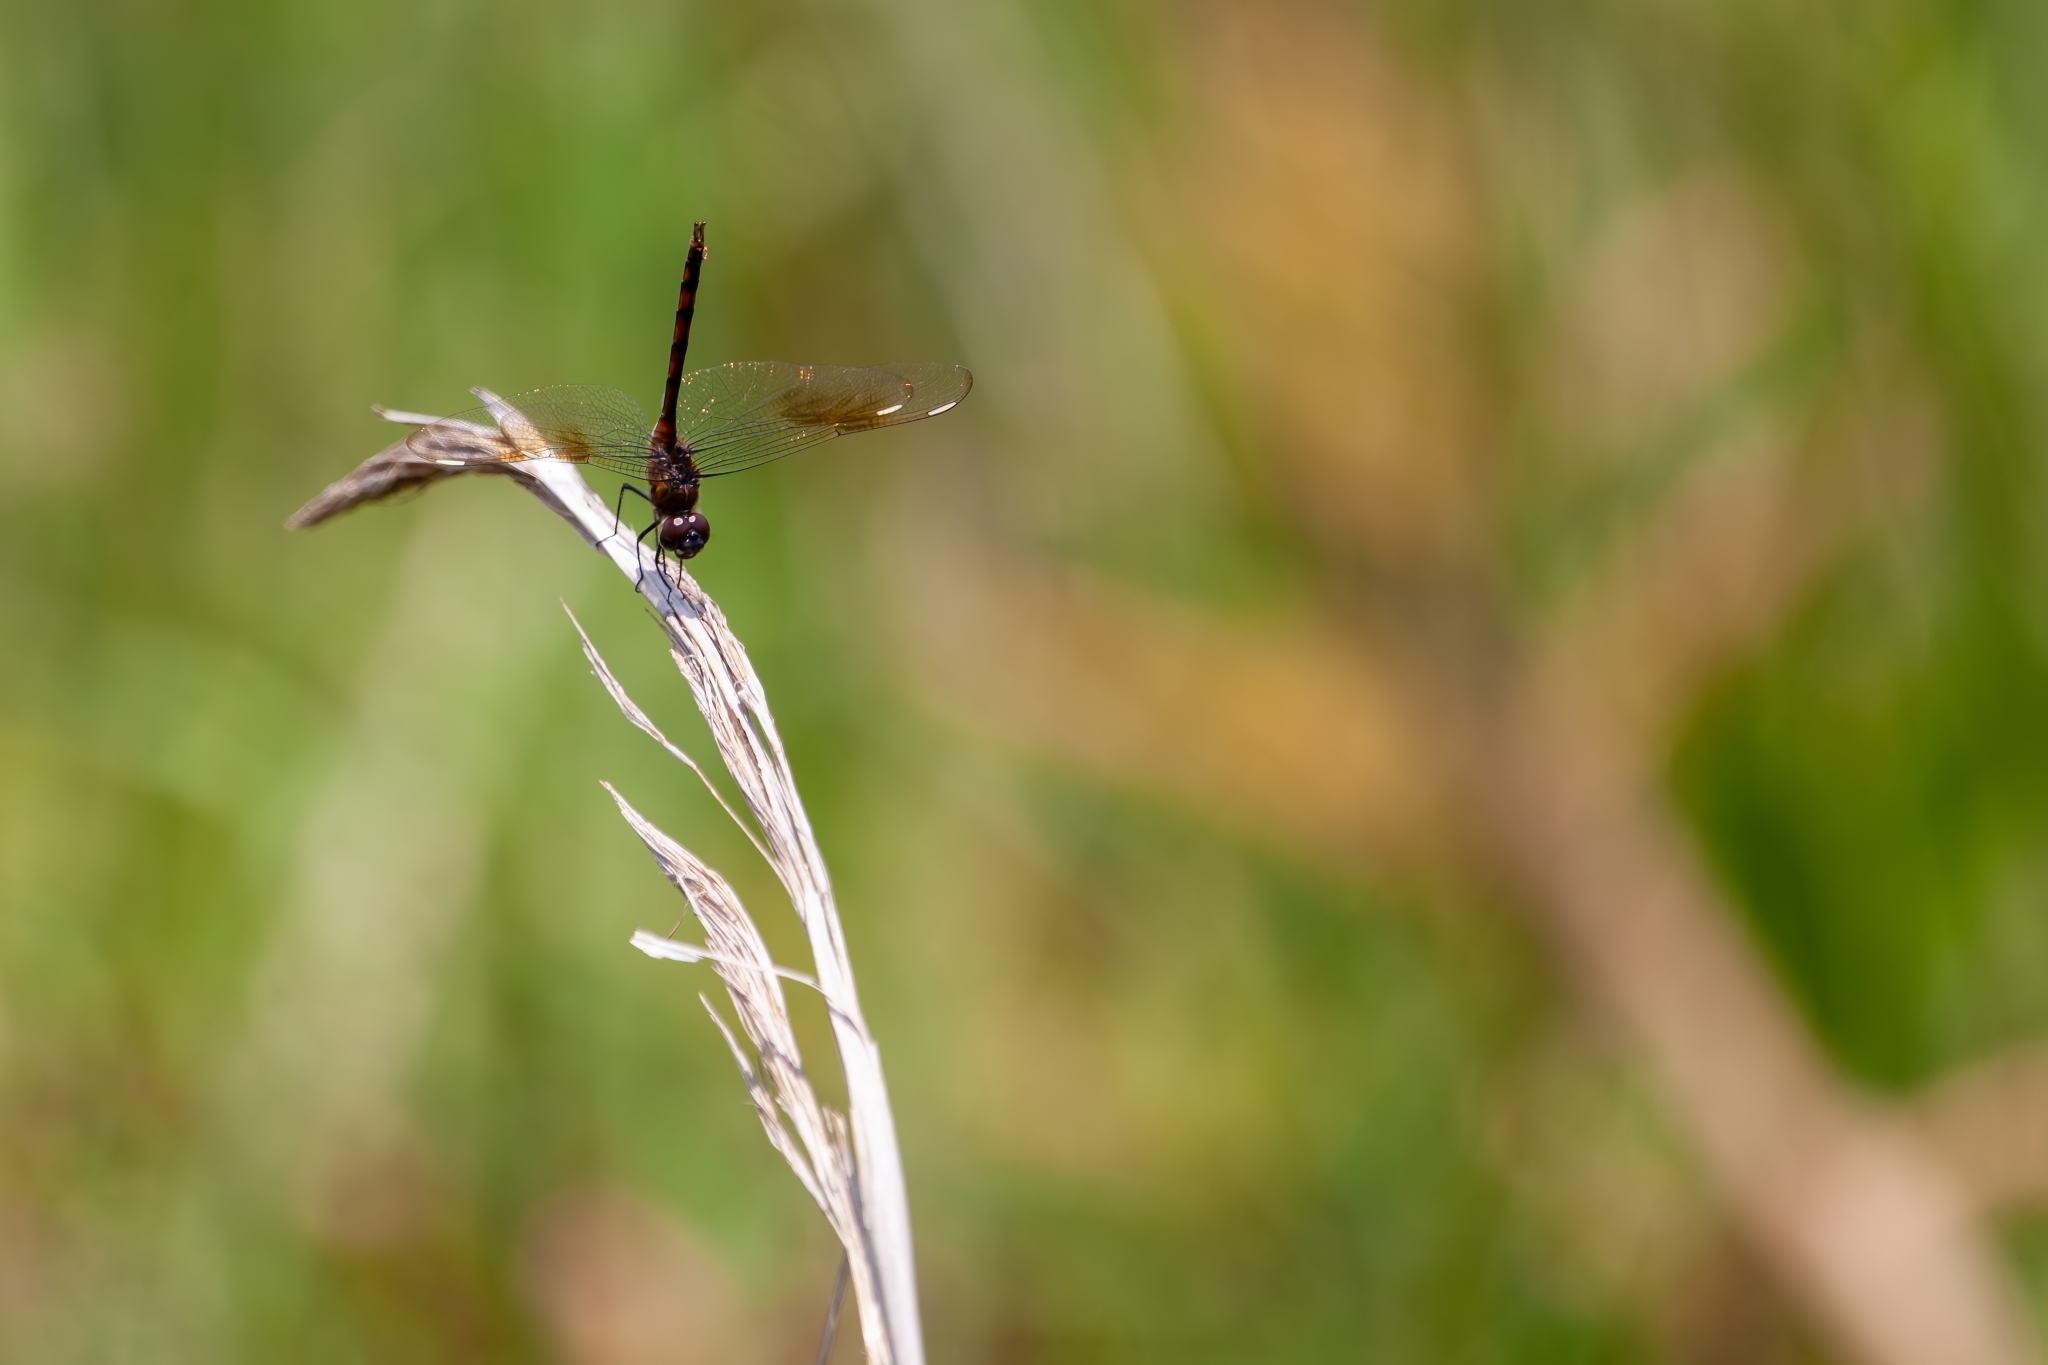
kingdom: Animalia
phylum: Arthropoda
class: Insecta
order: Odonata
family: Libellulidae
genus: Brachymesia
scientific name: Brachymesia gravida
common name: Four-spotted pennant
